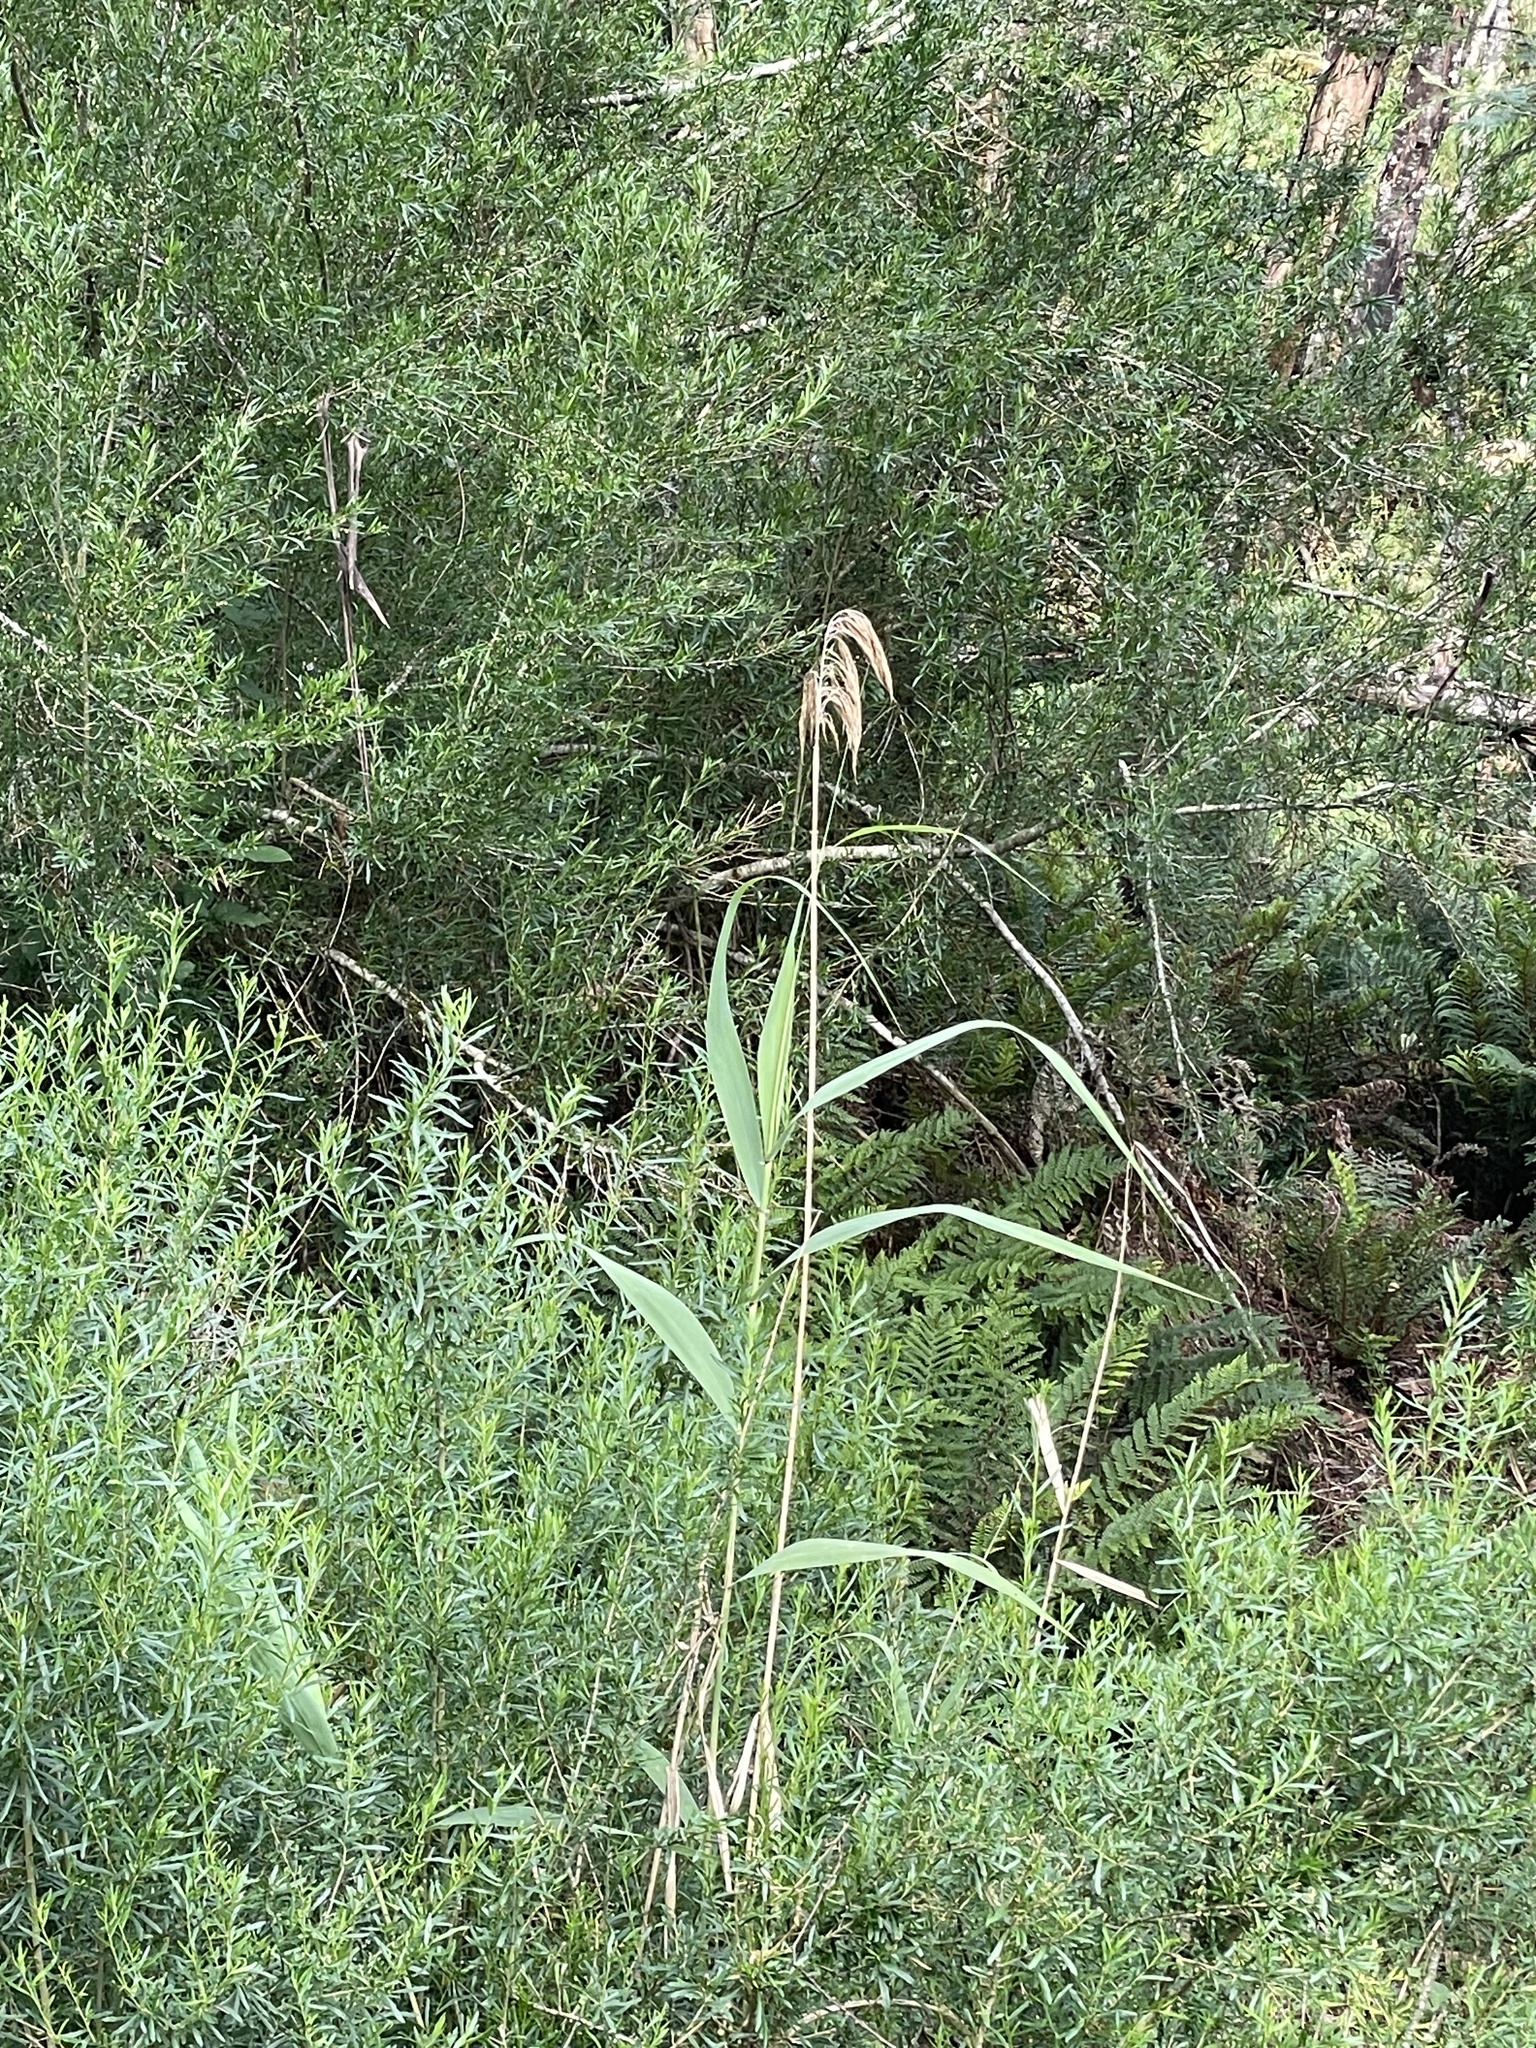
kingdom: Plantae
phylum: Tracheophyta
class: Liliopsida
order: Poales
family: Poaceae
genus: Phragmites
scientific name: Phragmites australis
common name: Common reed
